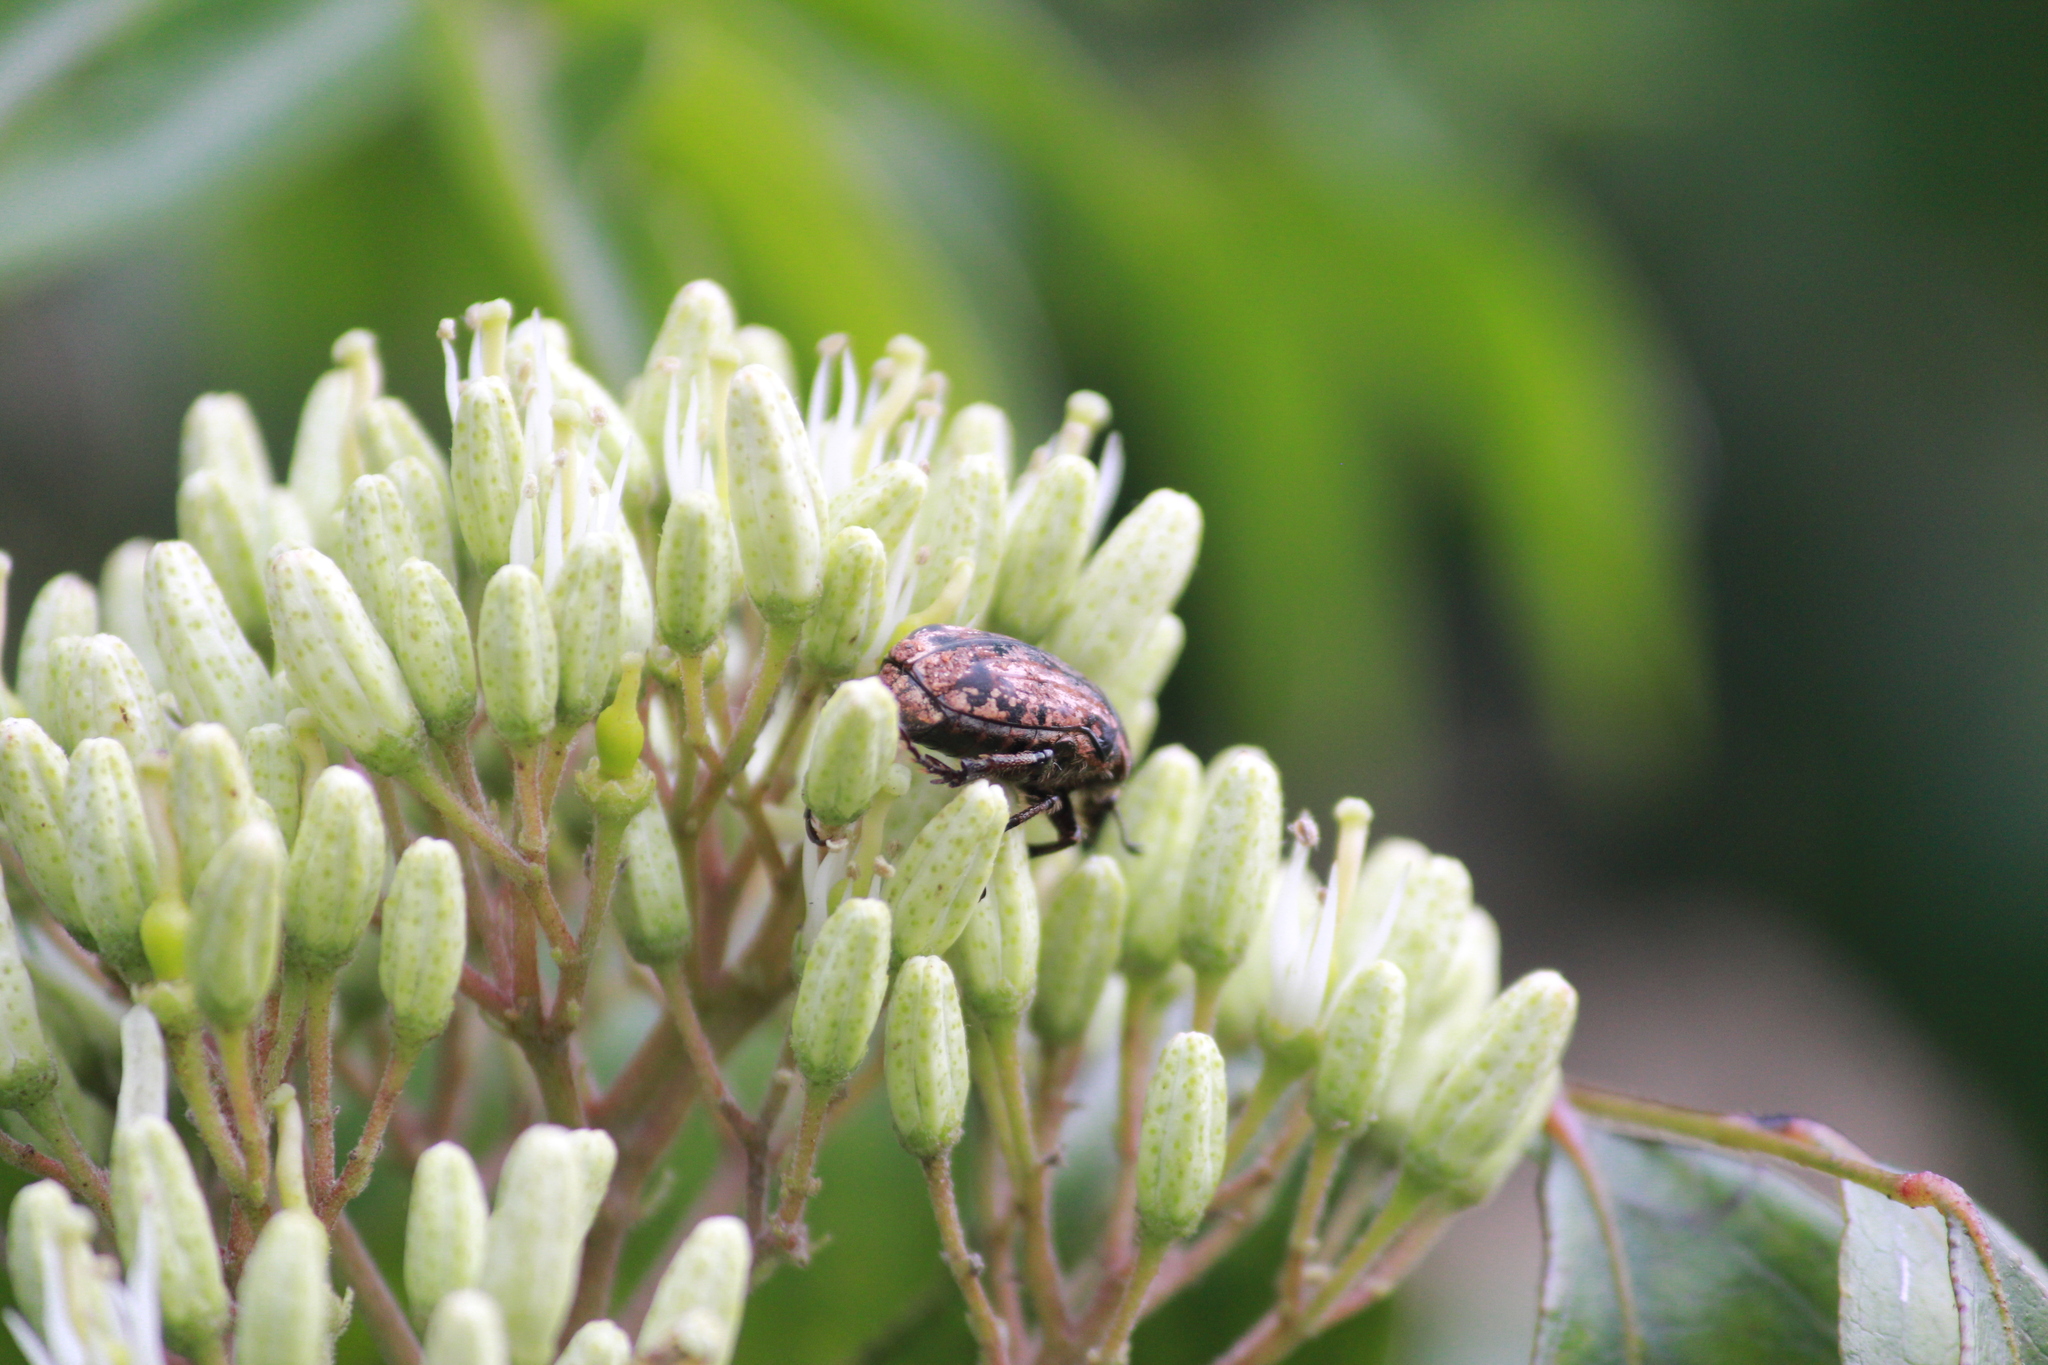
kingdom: Animalia
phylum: Arthropoda
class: Insecta
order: Coleoptera
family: Scarabaeidae
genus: Elaphinis
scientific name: Elaphinis irrorata
